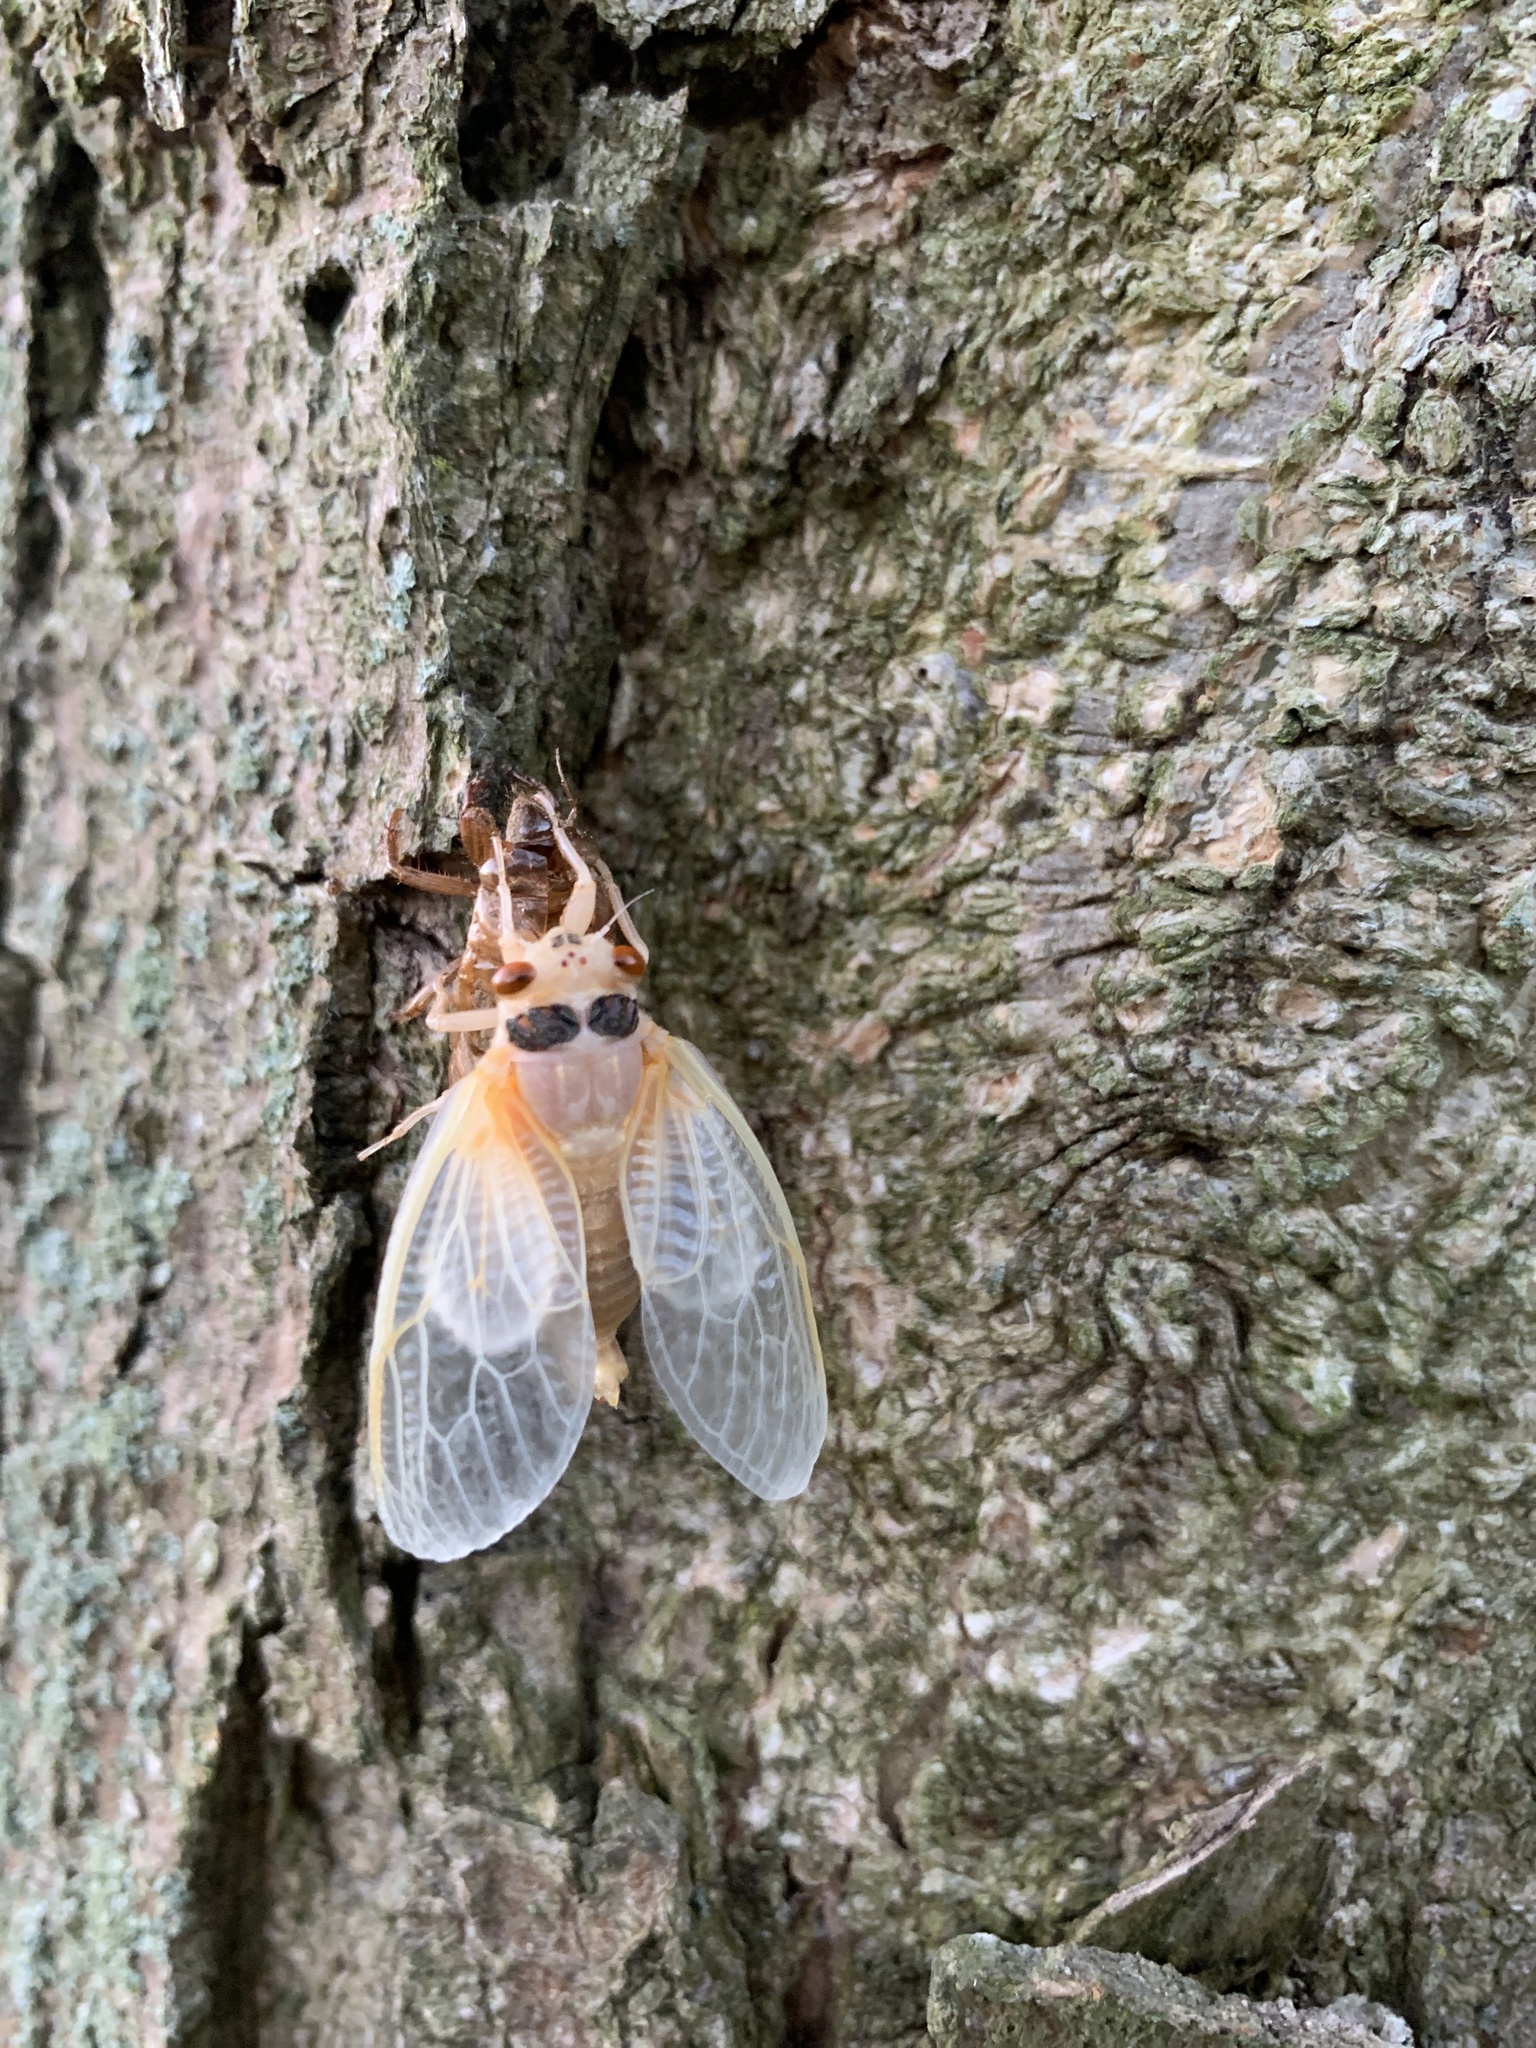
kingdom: Animalia
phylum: Arthropoda
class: Insecta
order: Hemiptera
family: Cicadidae
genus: Magicicada
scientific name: Magicicada
